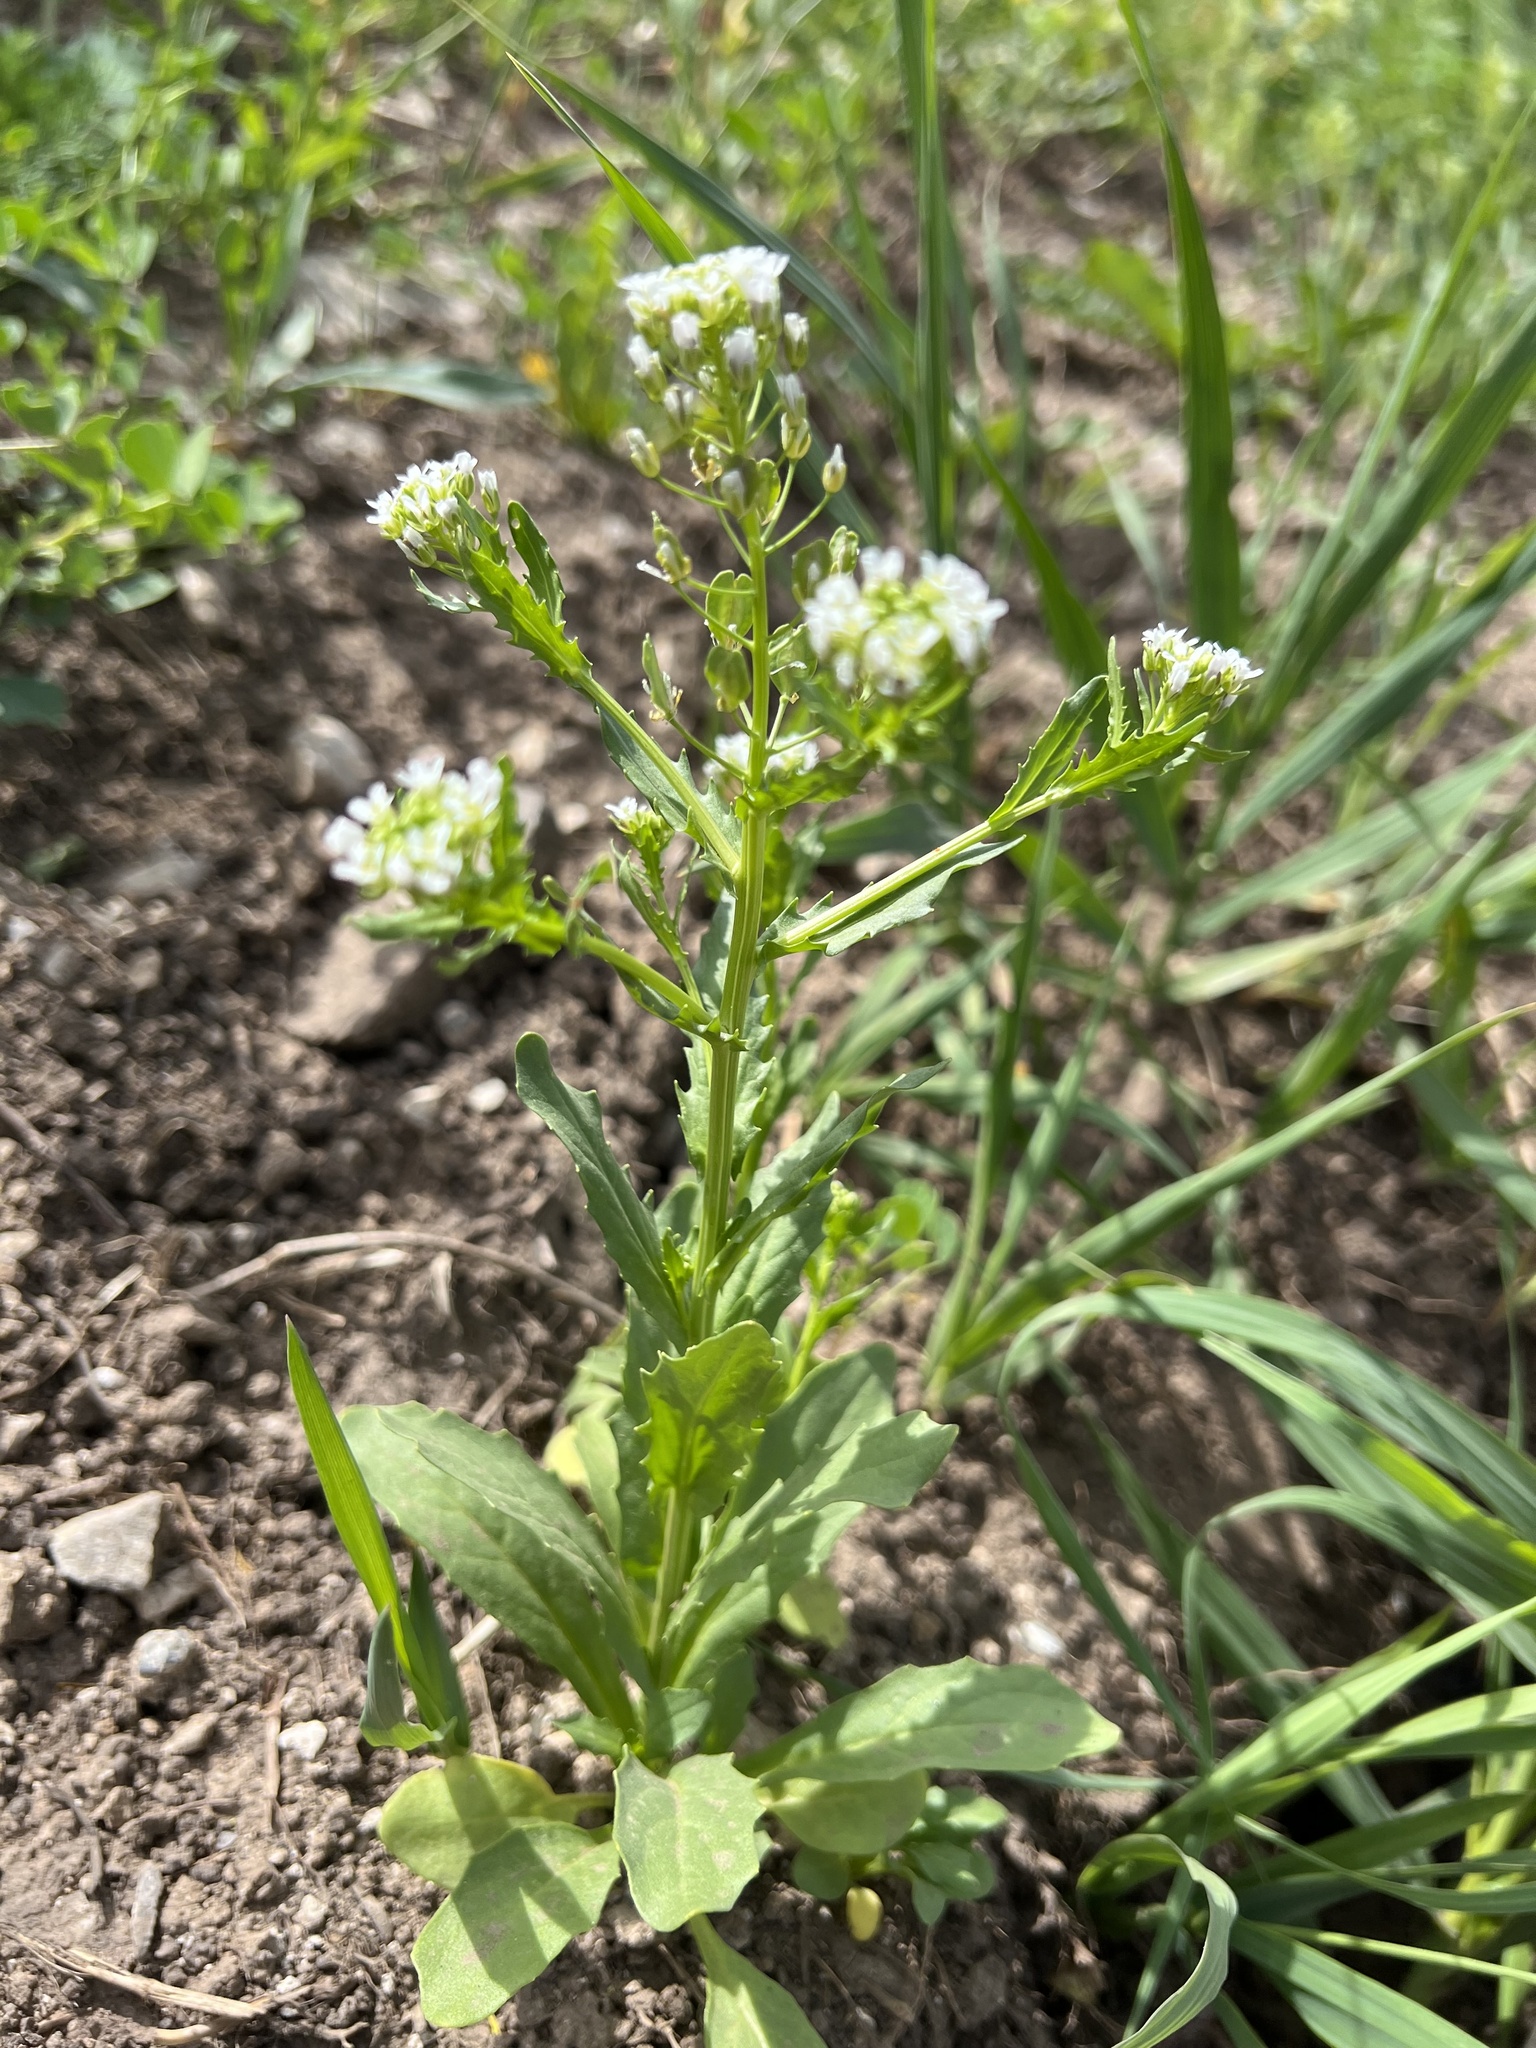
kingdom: Plantae
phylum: Tracheophyta
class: Magnoliopsida
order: Brassicales
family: Brassicaceae
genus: Thlaspi
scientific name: Thlaspi arvense
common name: Field pennycress
